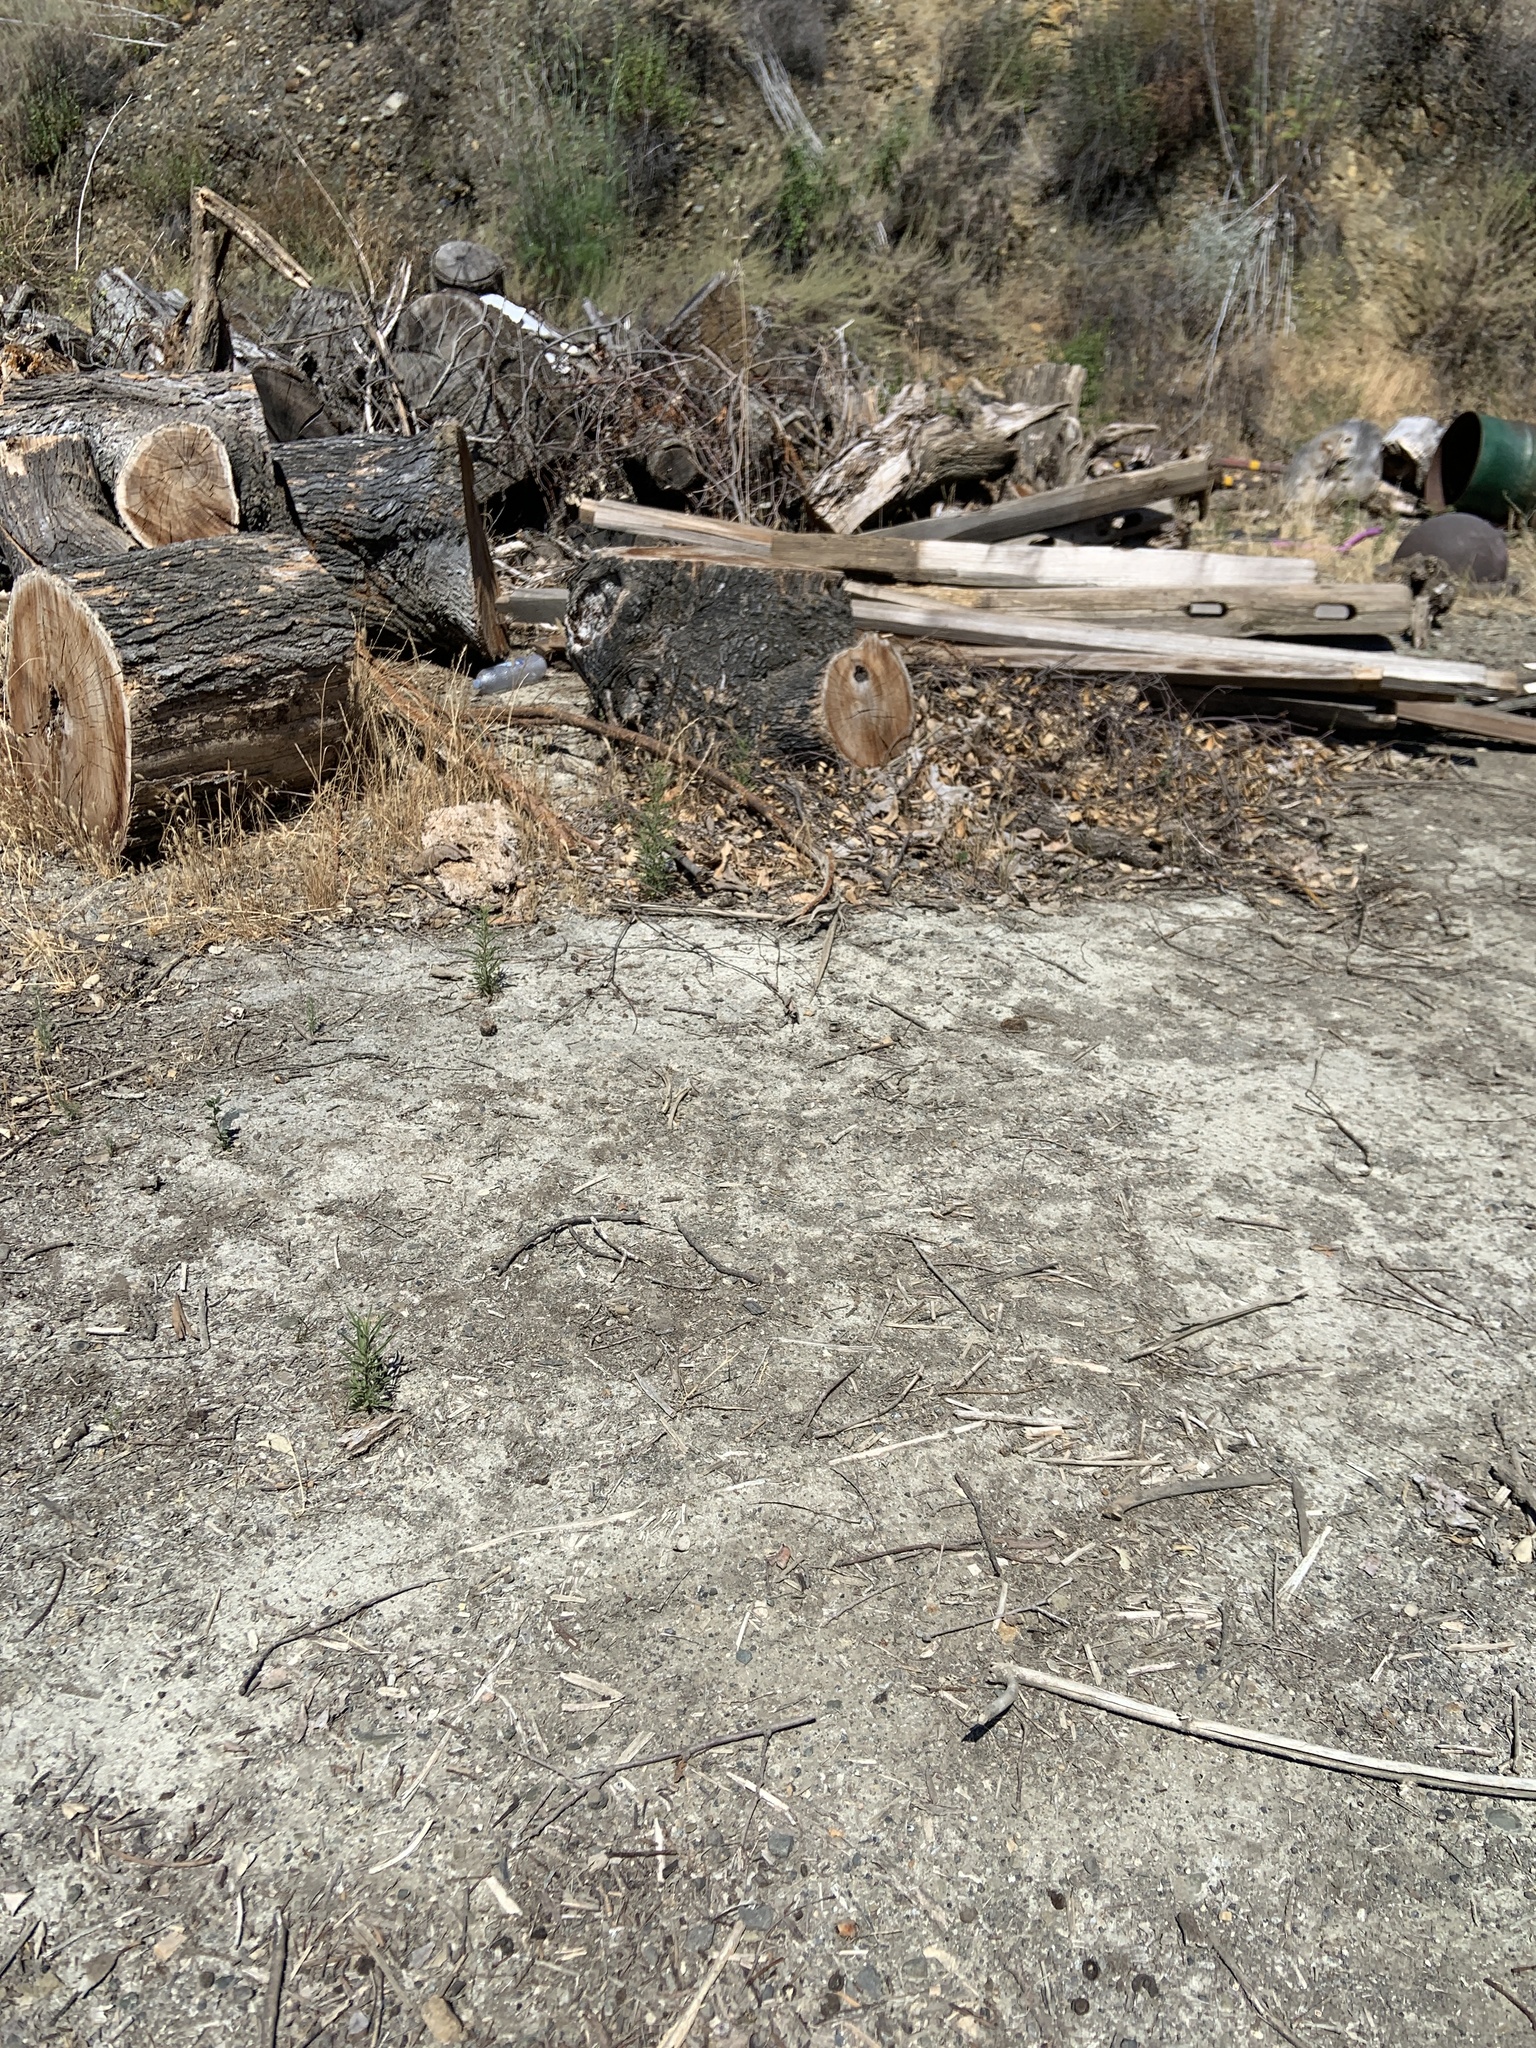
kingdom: Plantae
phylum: Tracheophyta
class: Magnoliopsida
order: Asterales
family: Asteraceae
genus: Dittrichia
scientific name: Dittrichia graveolens
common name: Stinking fleabane
